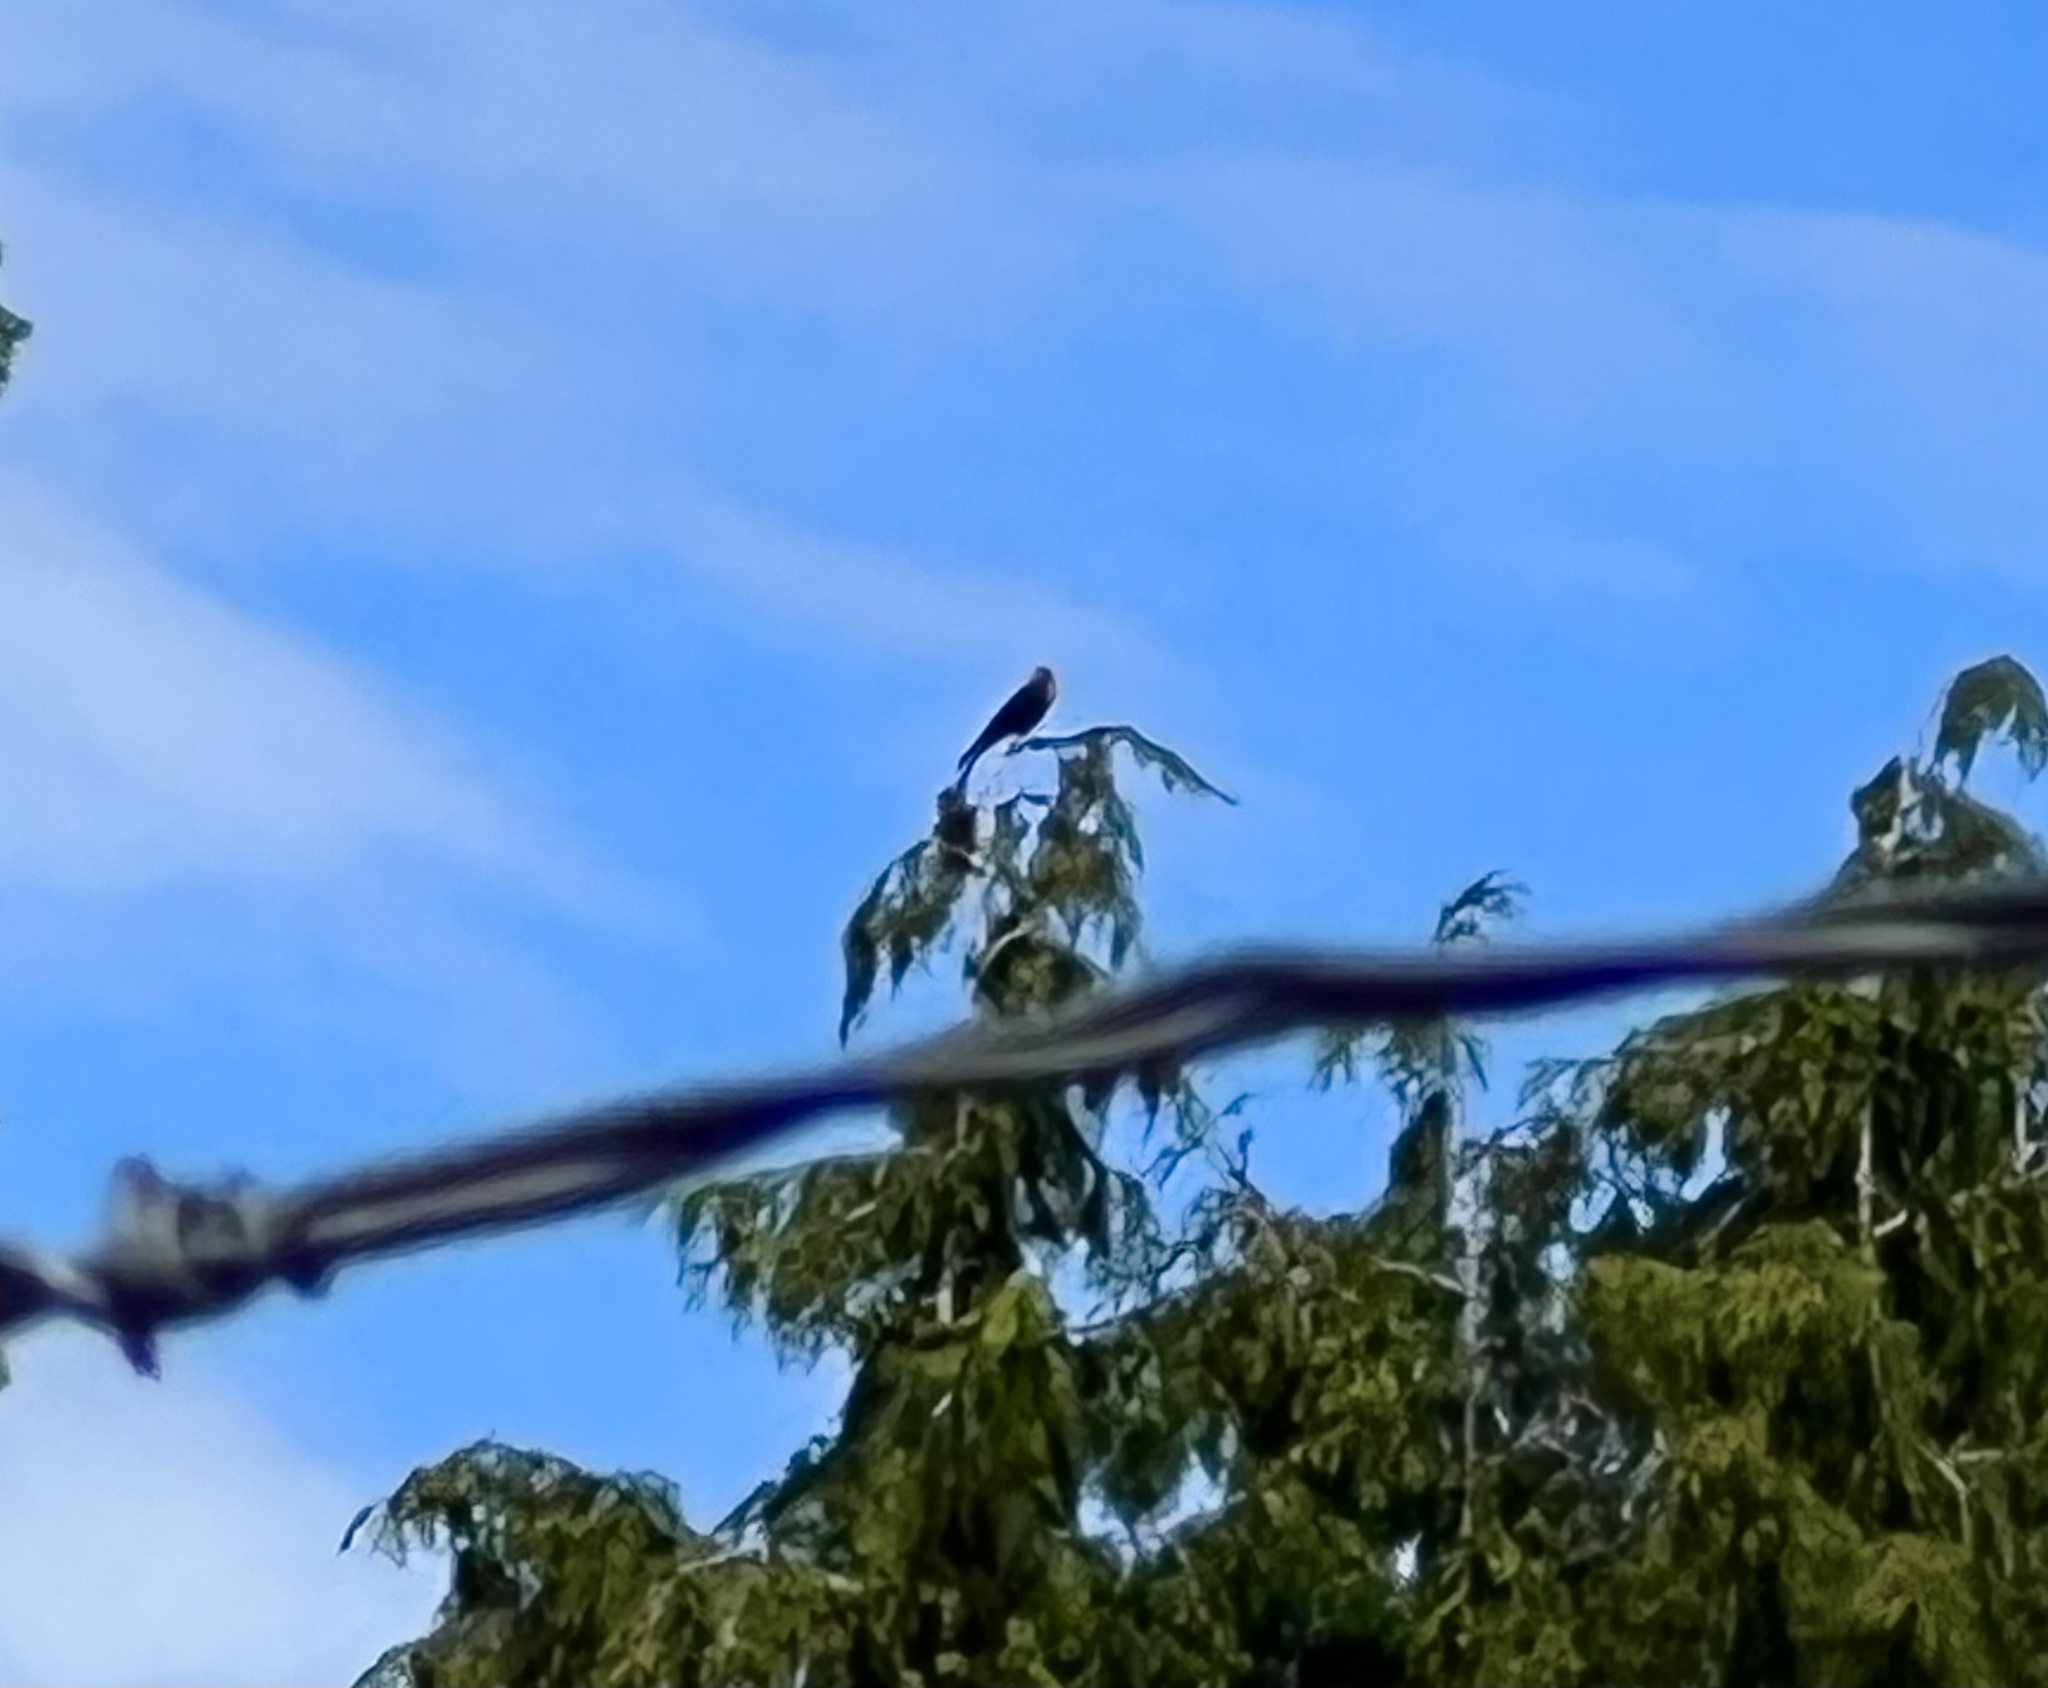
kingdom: Animalia
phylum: Chordata
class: Aves
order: Passeriformes
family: Icteridae
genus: Xanthocephalus
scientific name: Xanthocephalus xanthocephalus
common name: Yellow-headed blackbird
